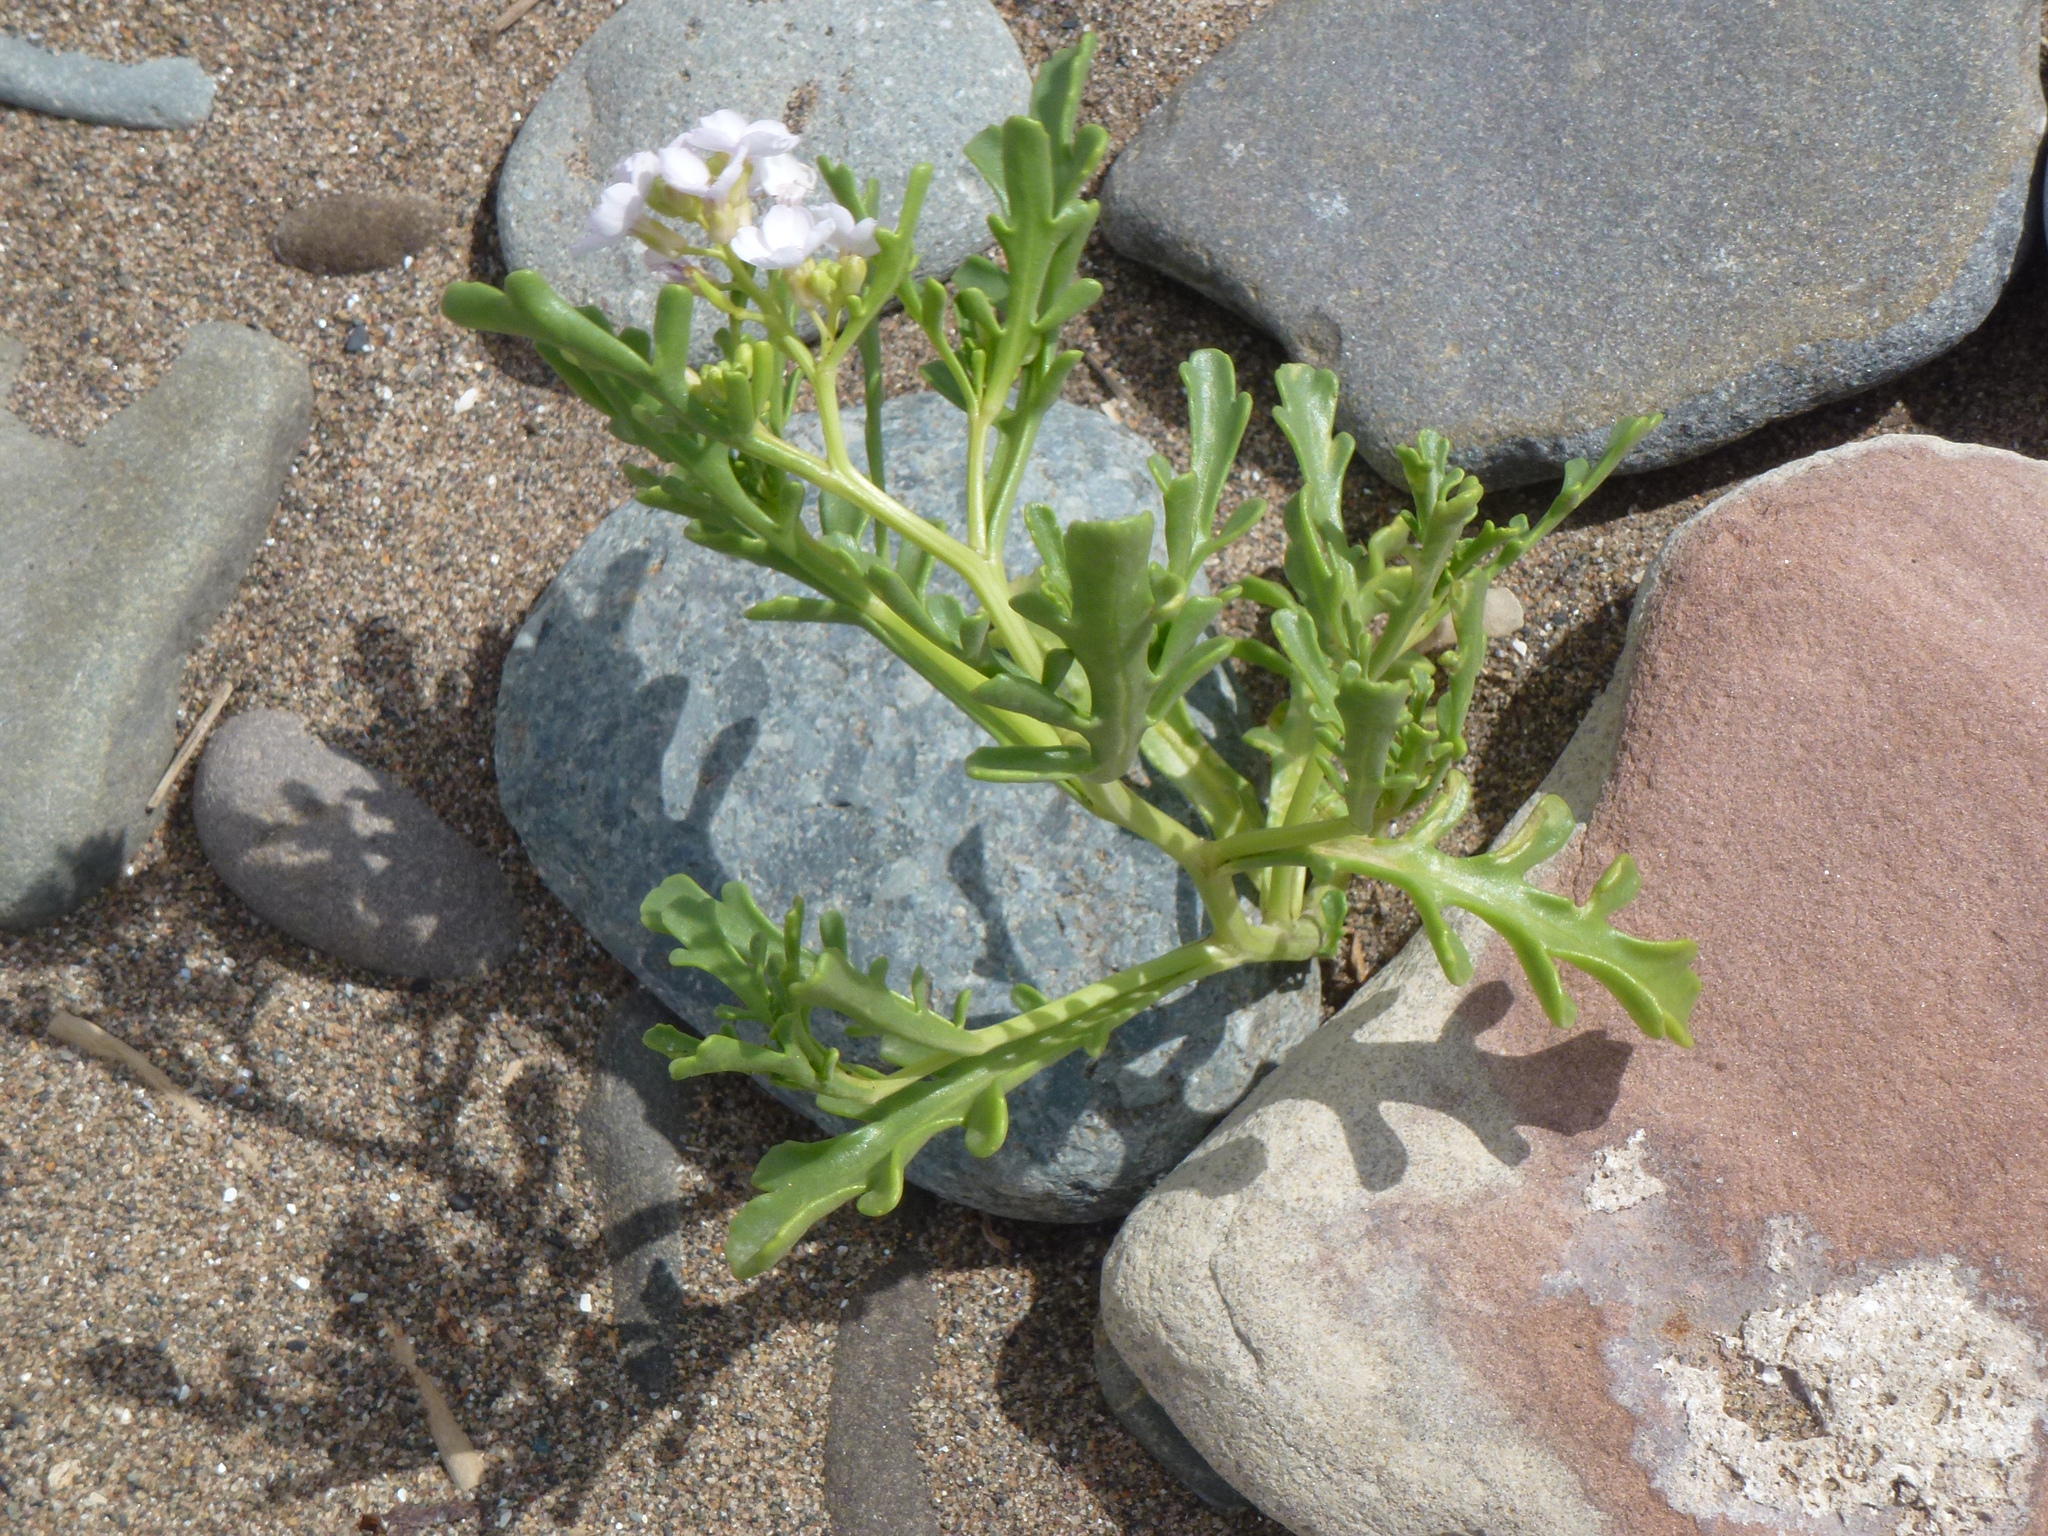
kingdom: Plantae
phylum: Tracheophyta
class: Magnoliopsida
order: Brassicales
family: Brassicaceae
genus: Cakile
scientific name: Cakile maritima
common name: Sea rocket
